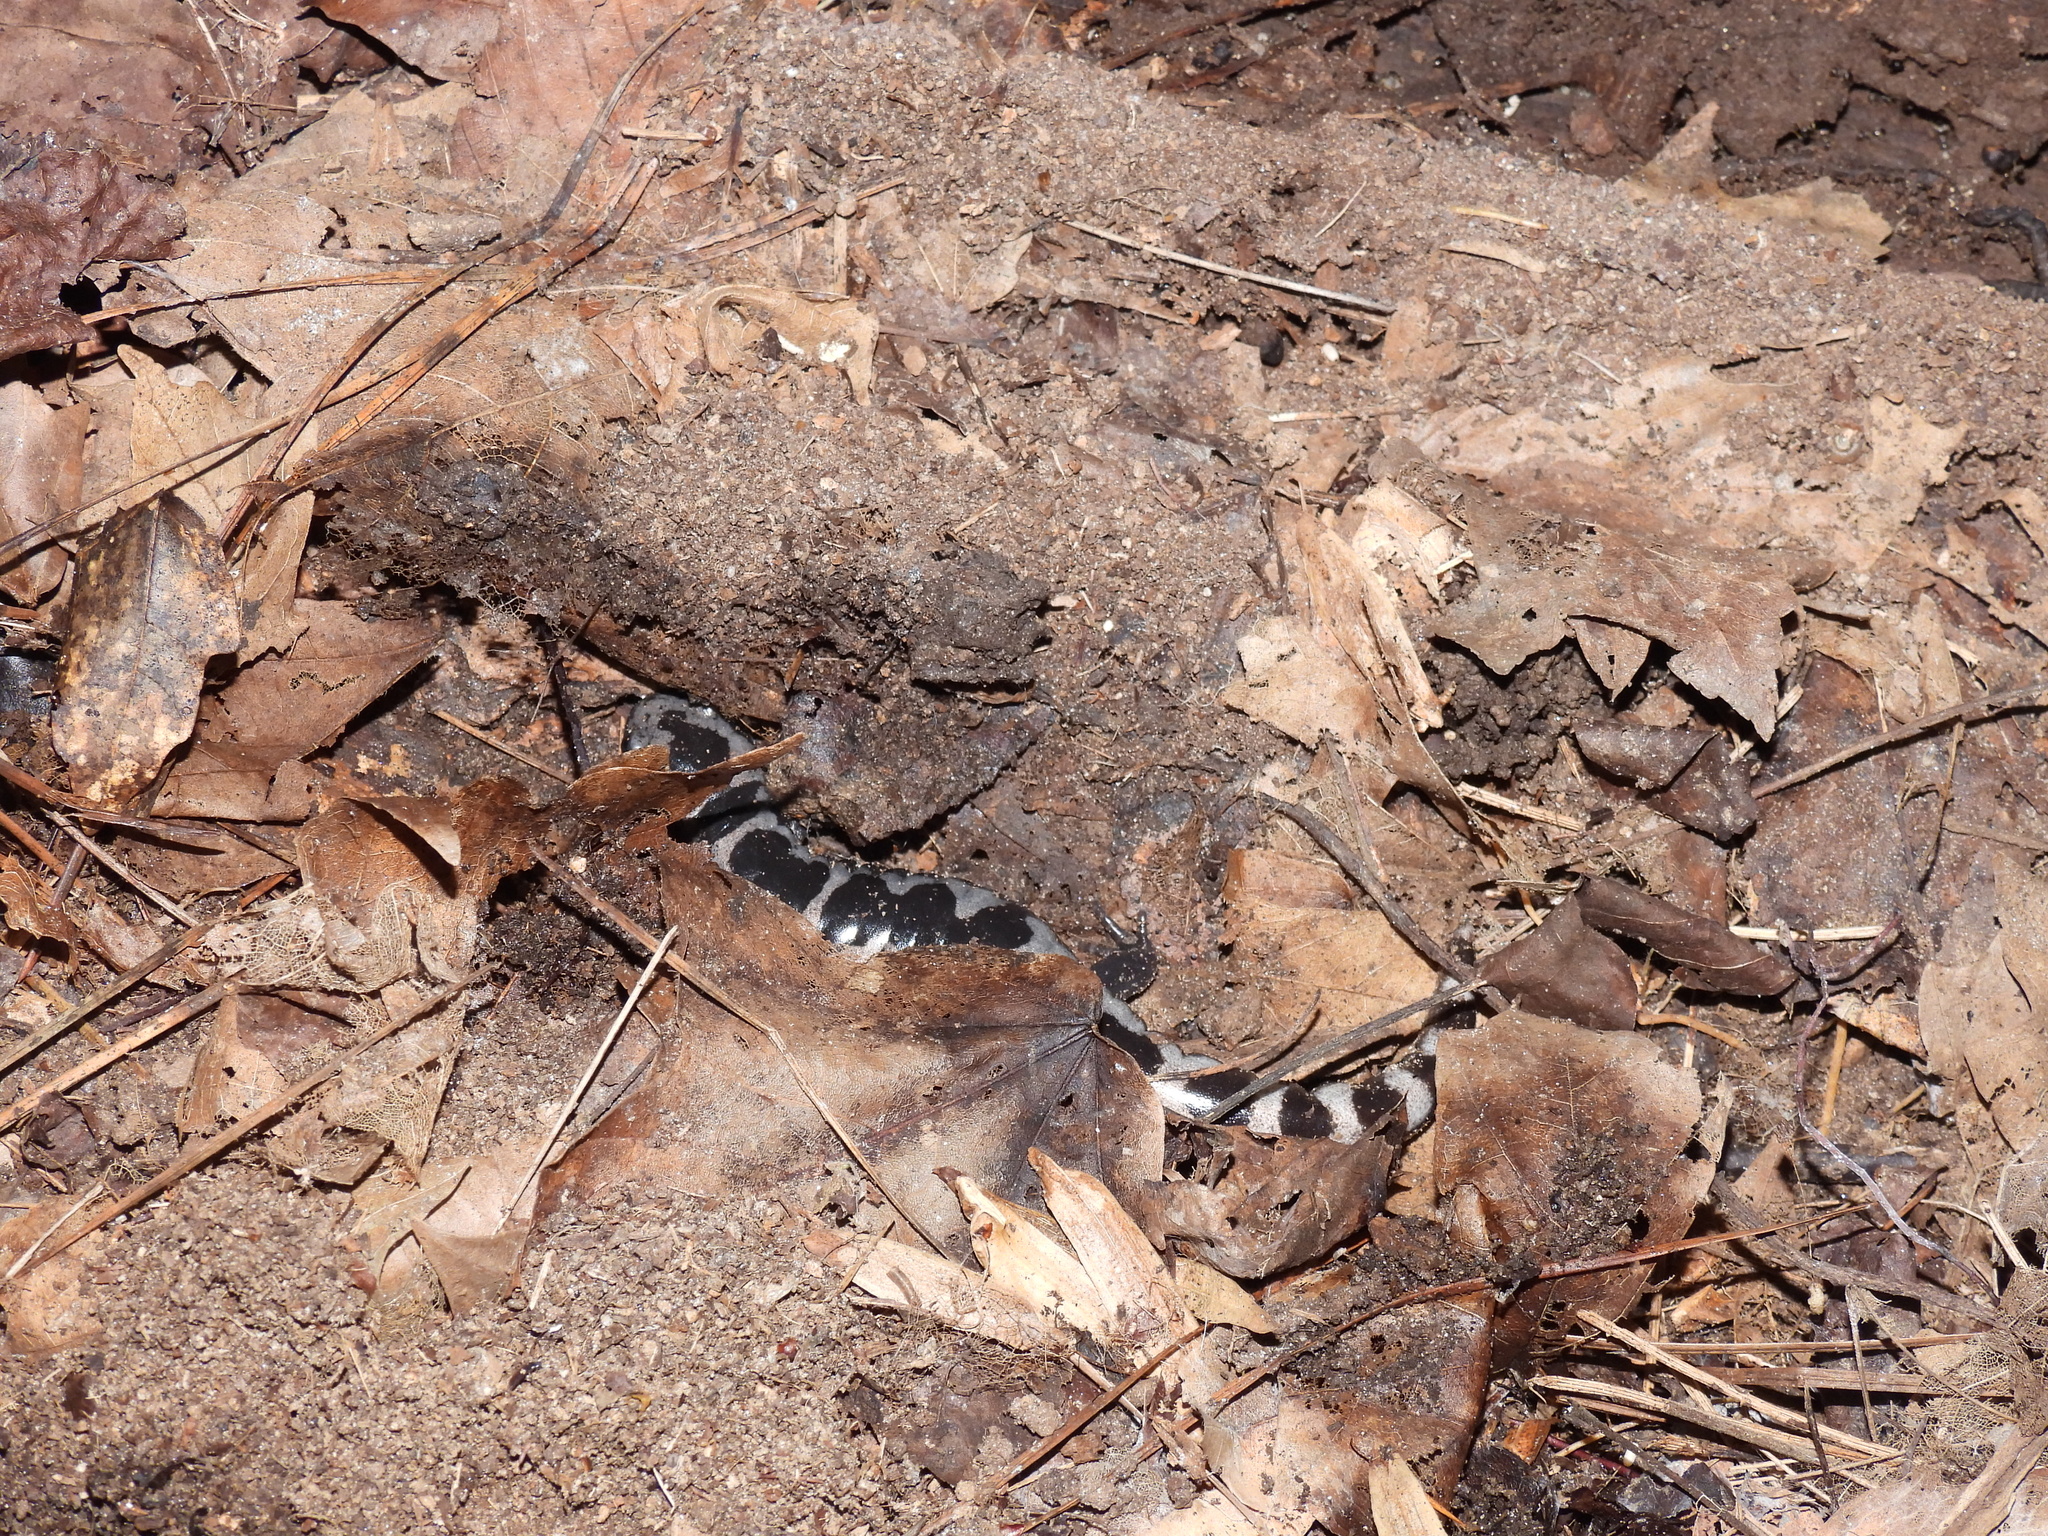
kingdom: Animalia
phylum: Chordata
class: Amphibia
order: Caudata
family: Ambystomatidae
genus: Ambystoma
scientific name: Ambystoma opacum
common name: Marbled salamander
